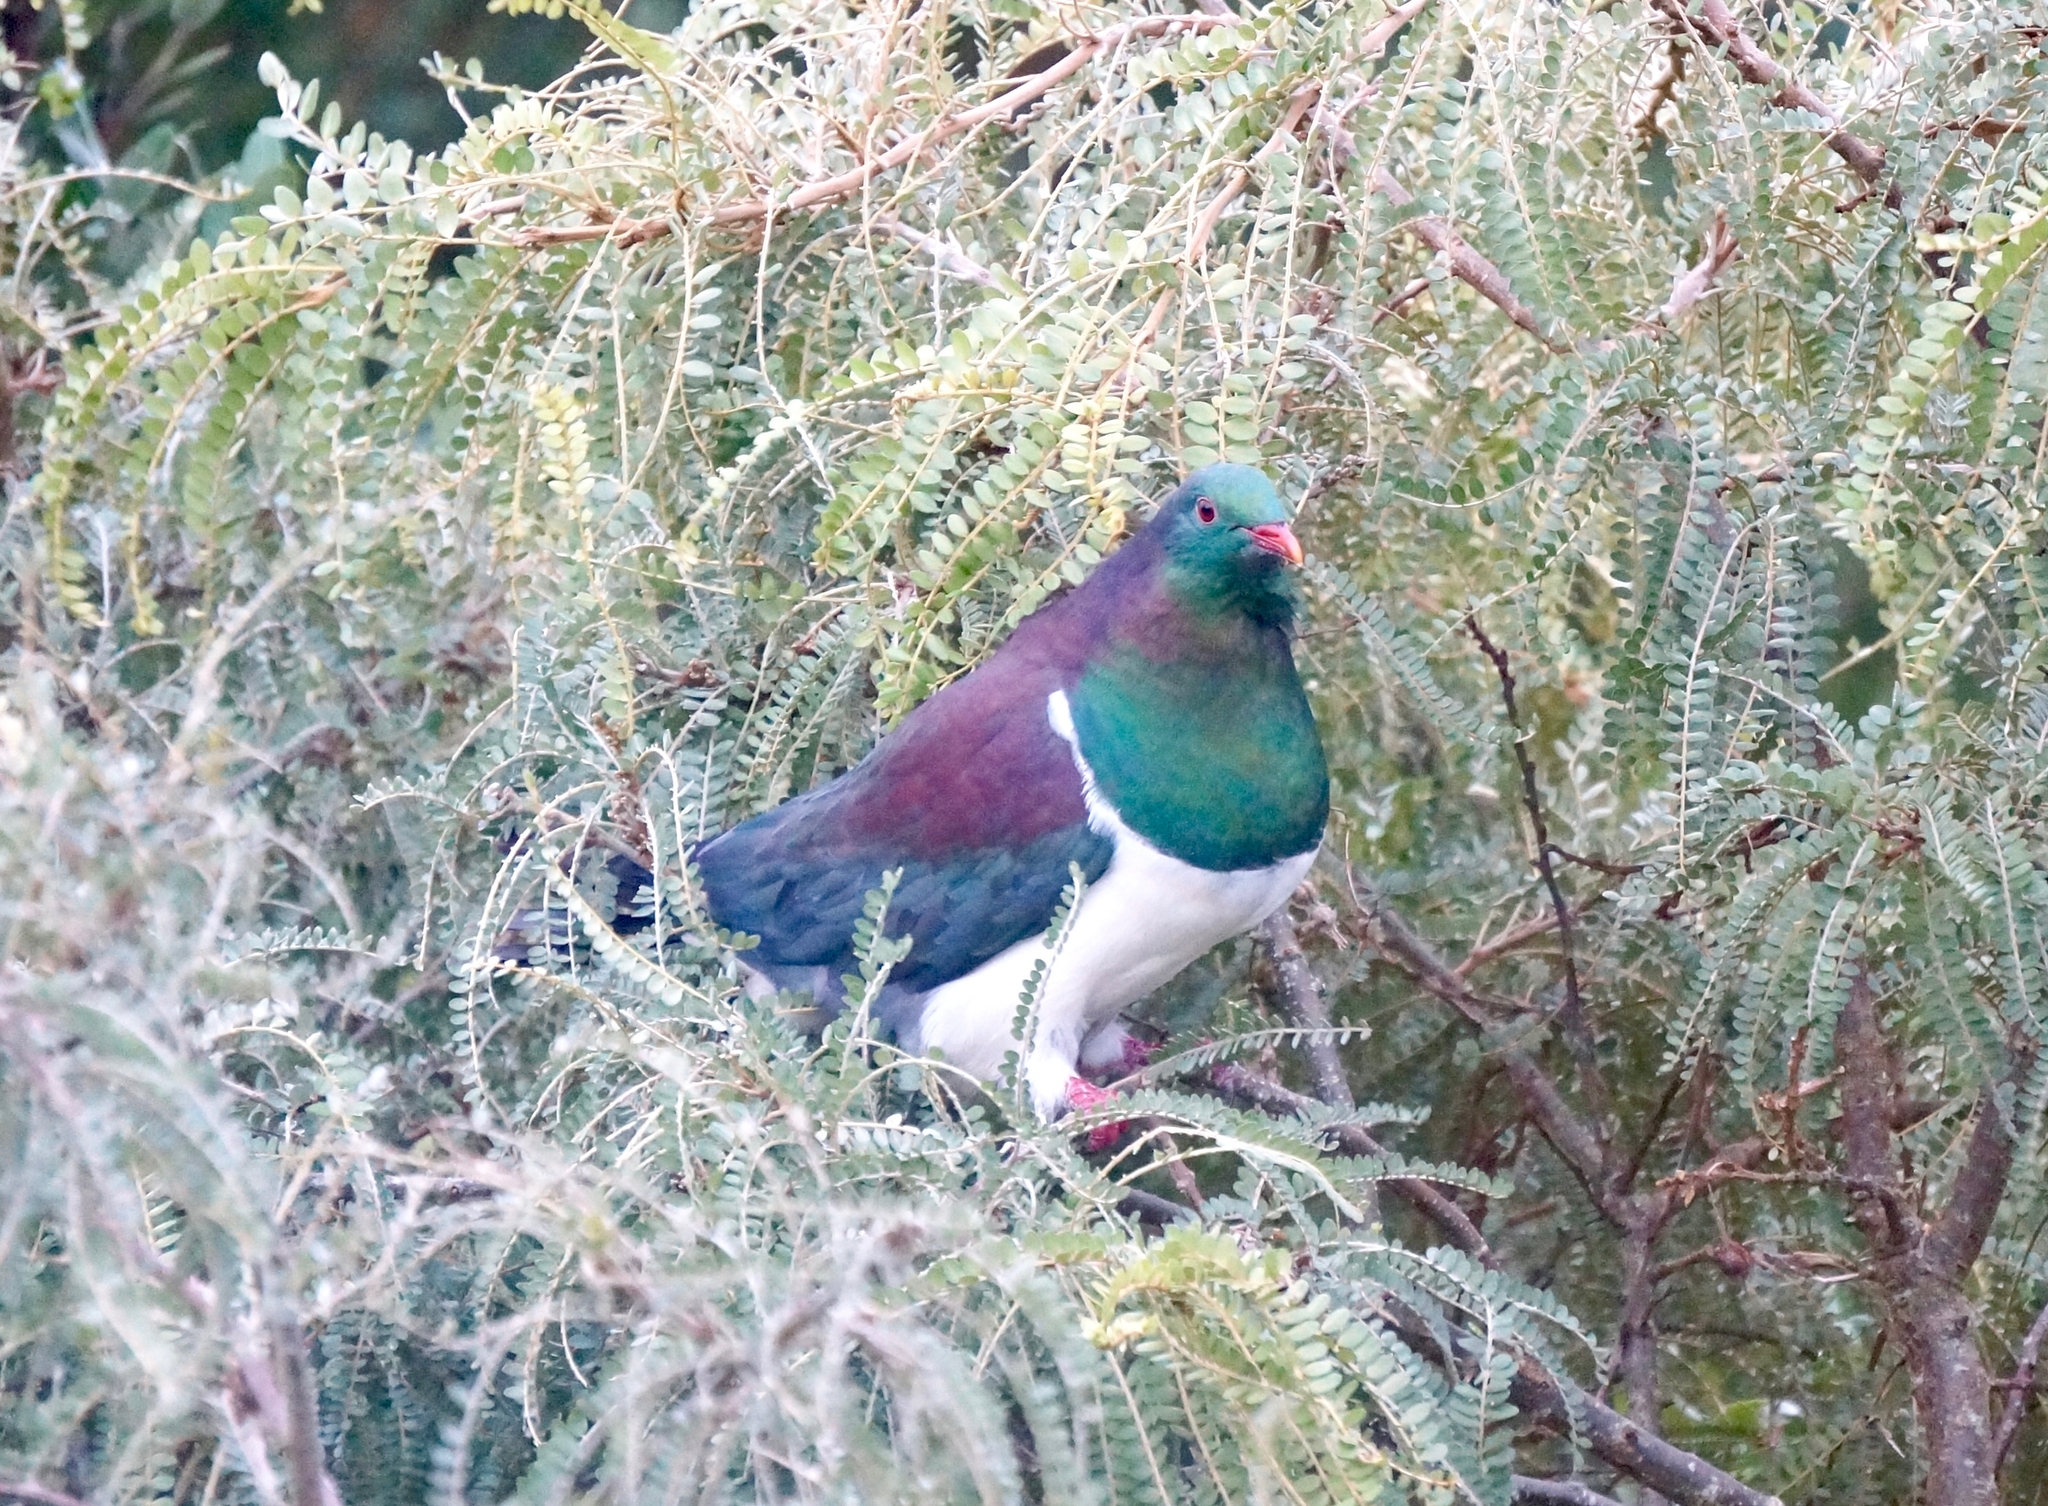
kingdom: Animalia
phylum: Chordata
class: Aves
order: Columbiformes
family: Columbidae
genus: Hemiphaga
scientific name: Hemiphaga novaeseelandiae
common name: New zealand pigeon
